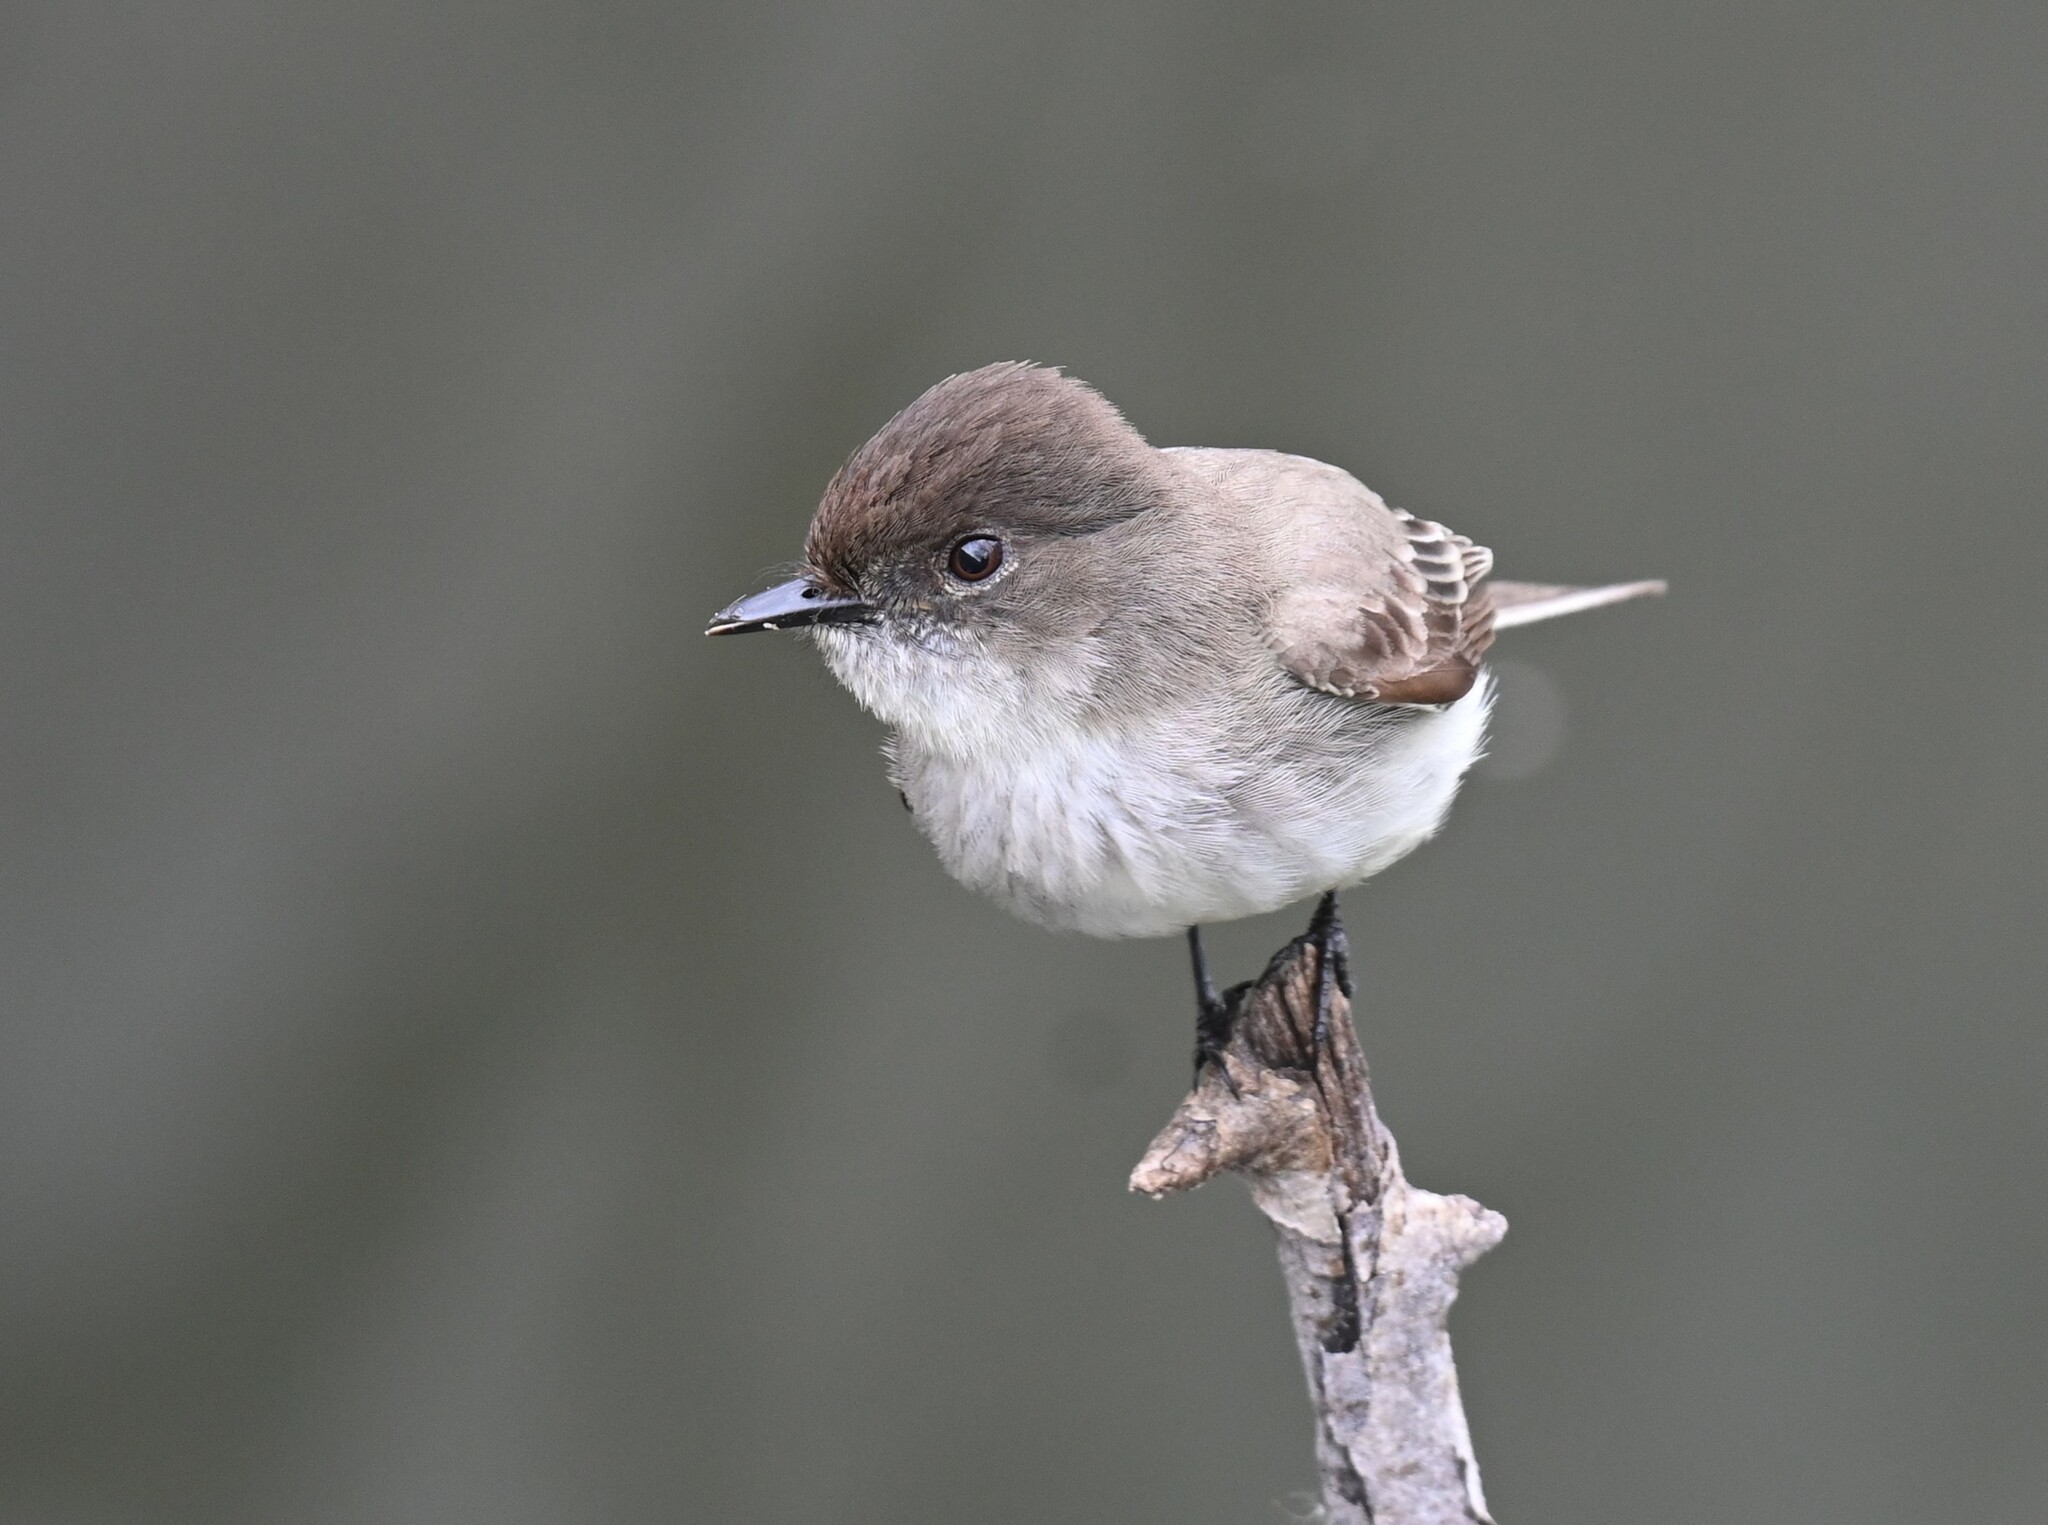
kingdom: Animalia
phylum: Chordata
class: Aves
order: Passeriformes
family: Tyrannidae
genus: Sayornis
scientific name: Sayornis phoebe
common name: Eastern phoebe
